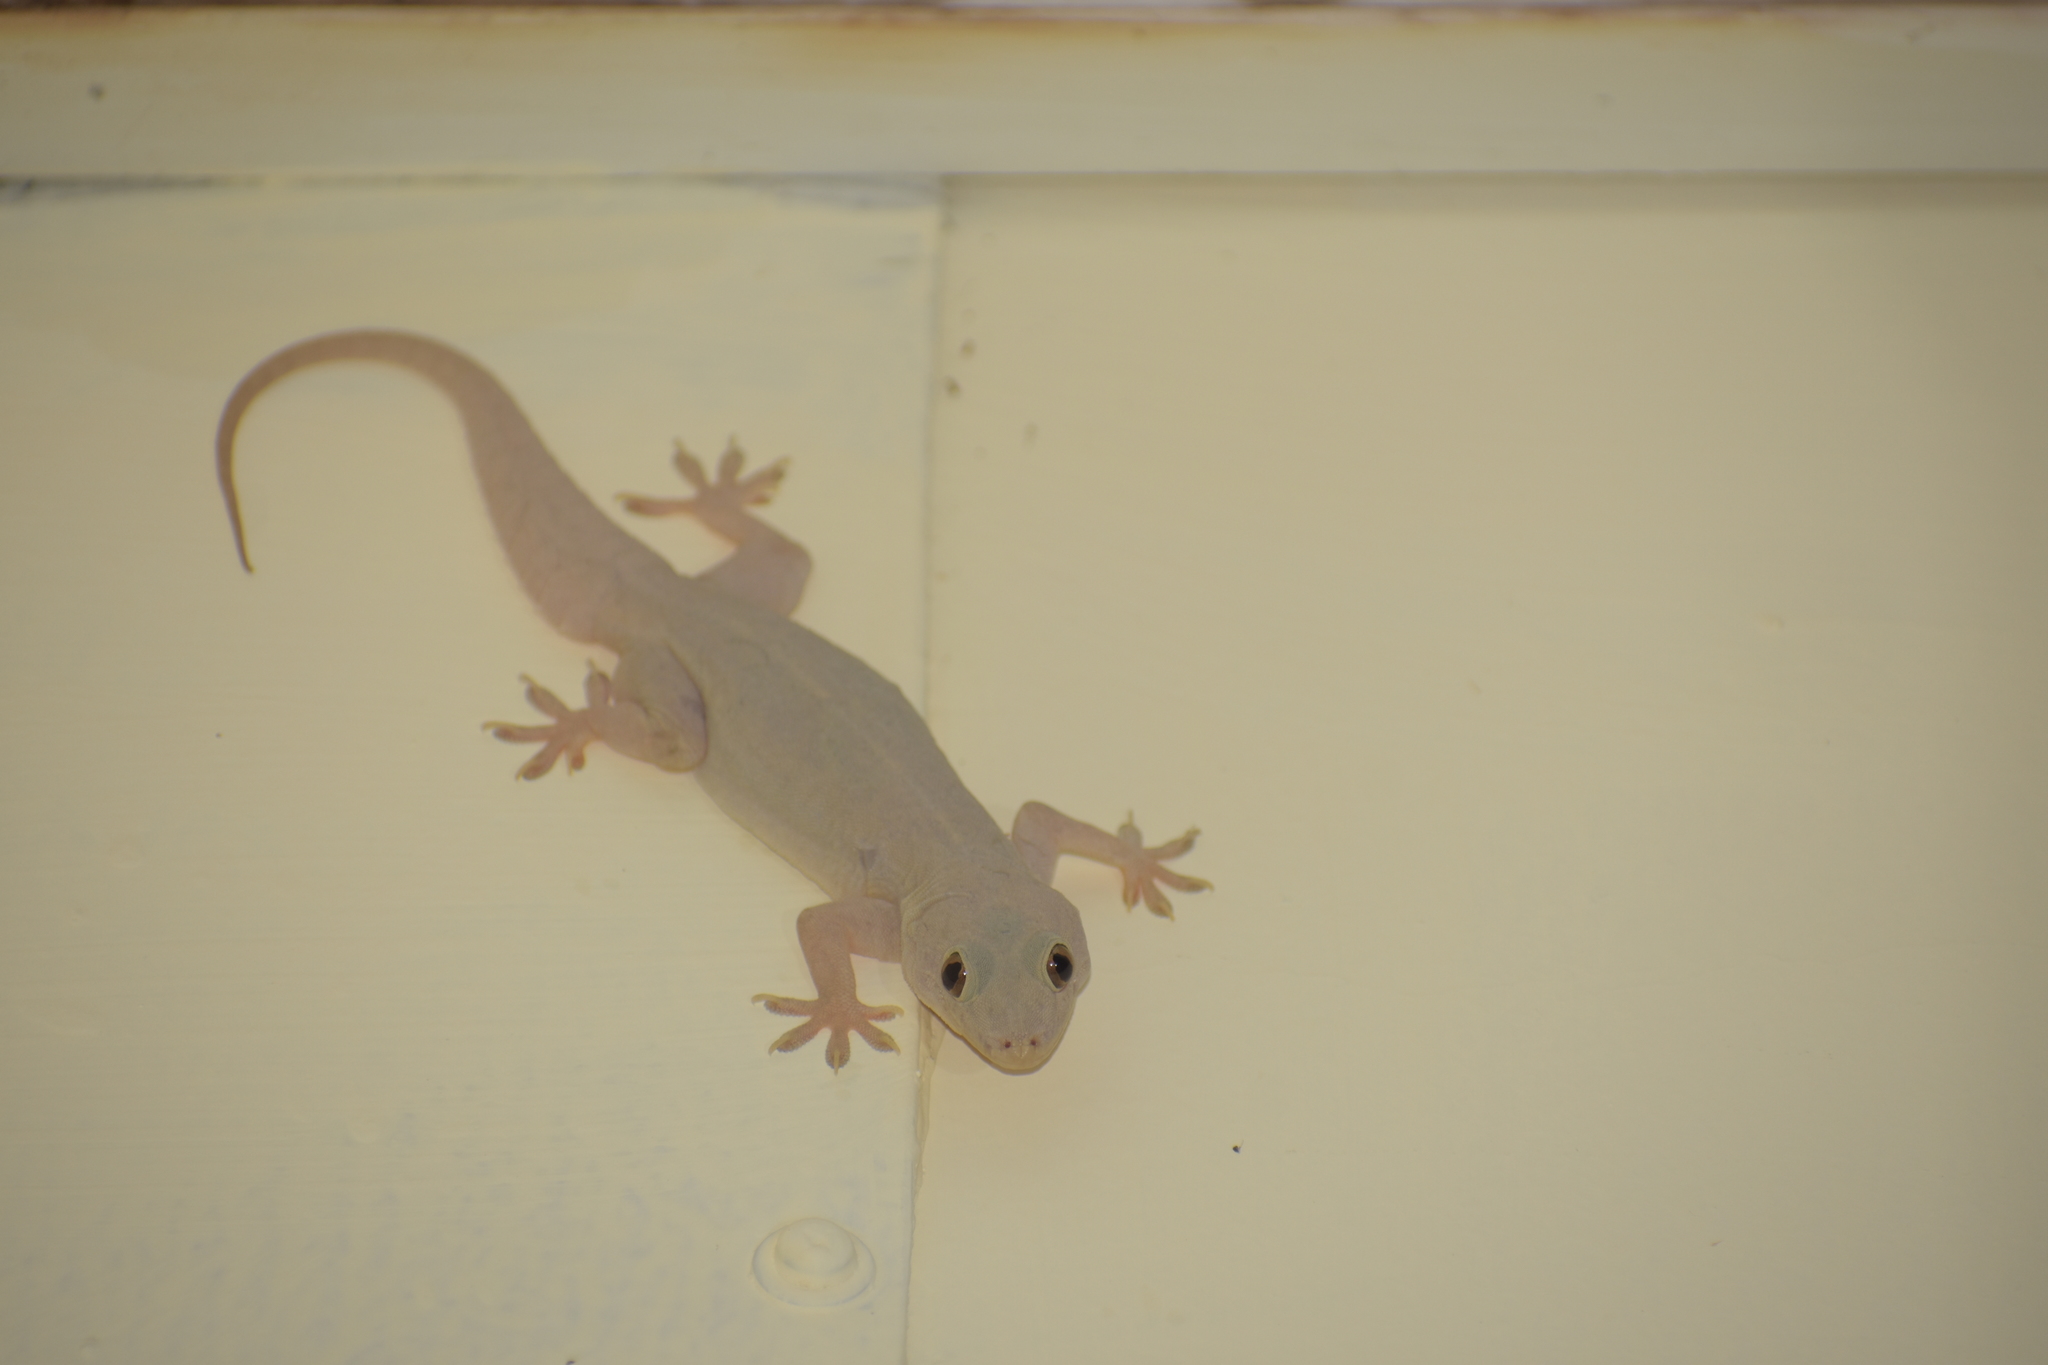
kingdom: Animalia
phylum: Chordata
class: Squamata
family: Gekkonidae
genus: Hemidactylus
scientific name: Hemidactylus leschenaultii
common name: Leschenault's leaf-toed gecko
